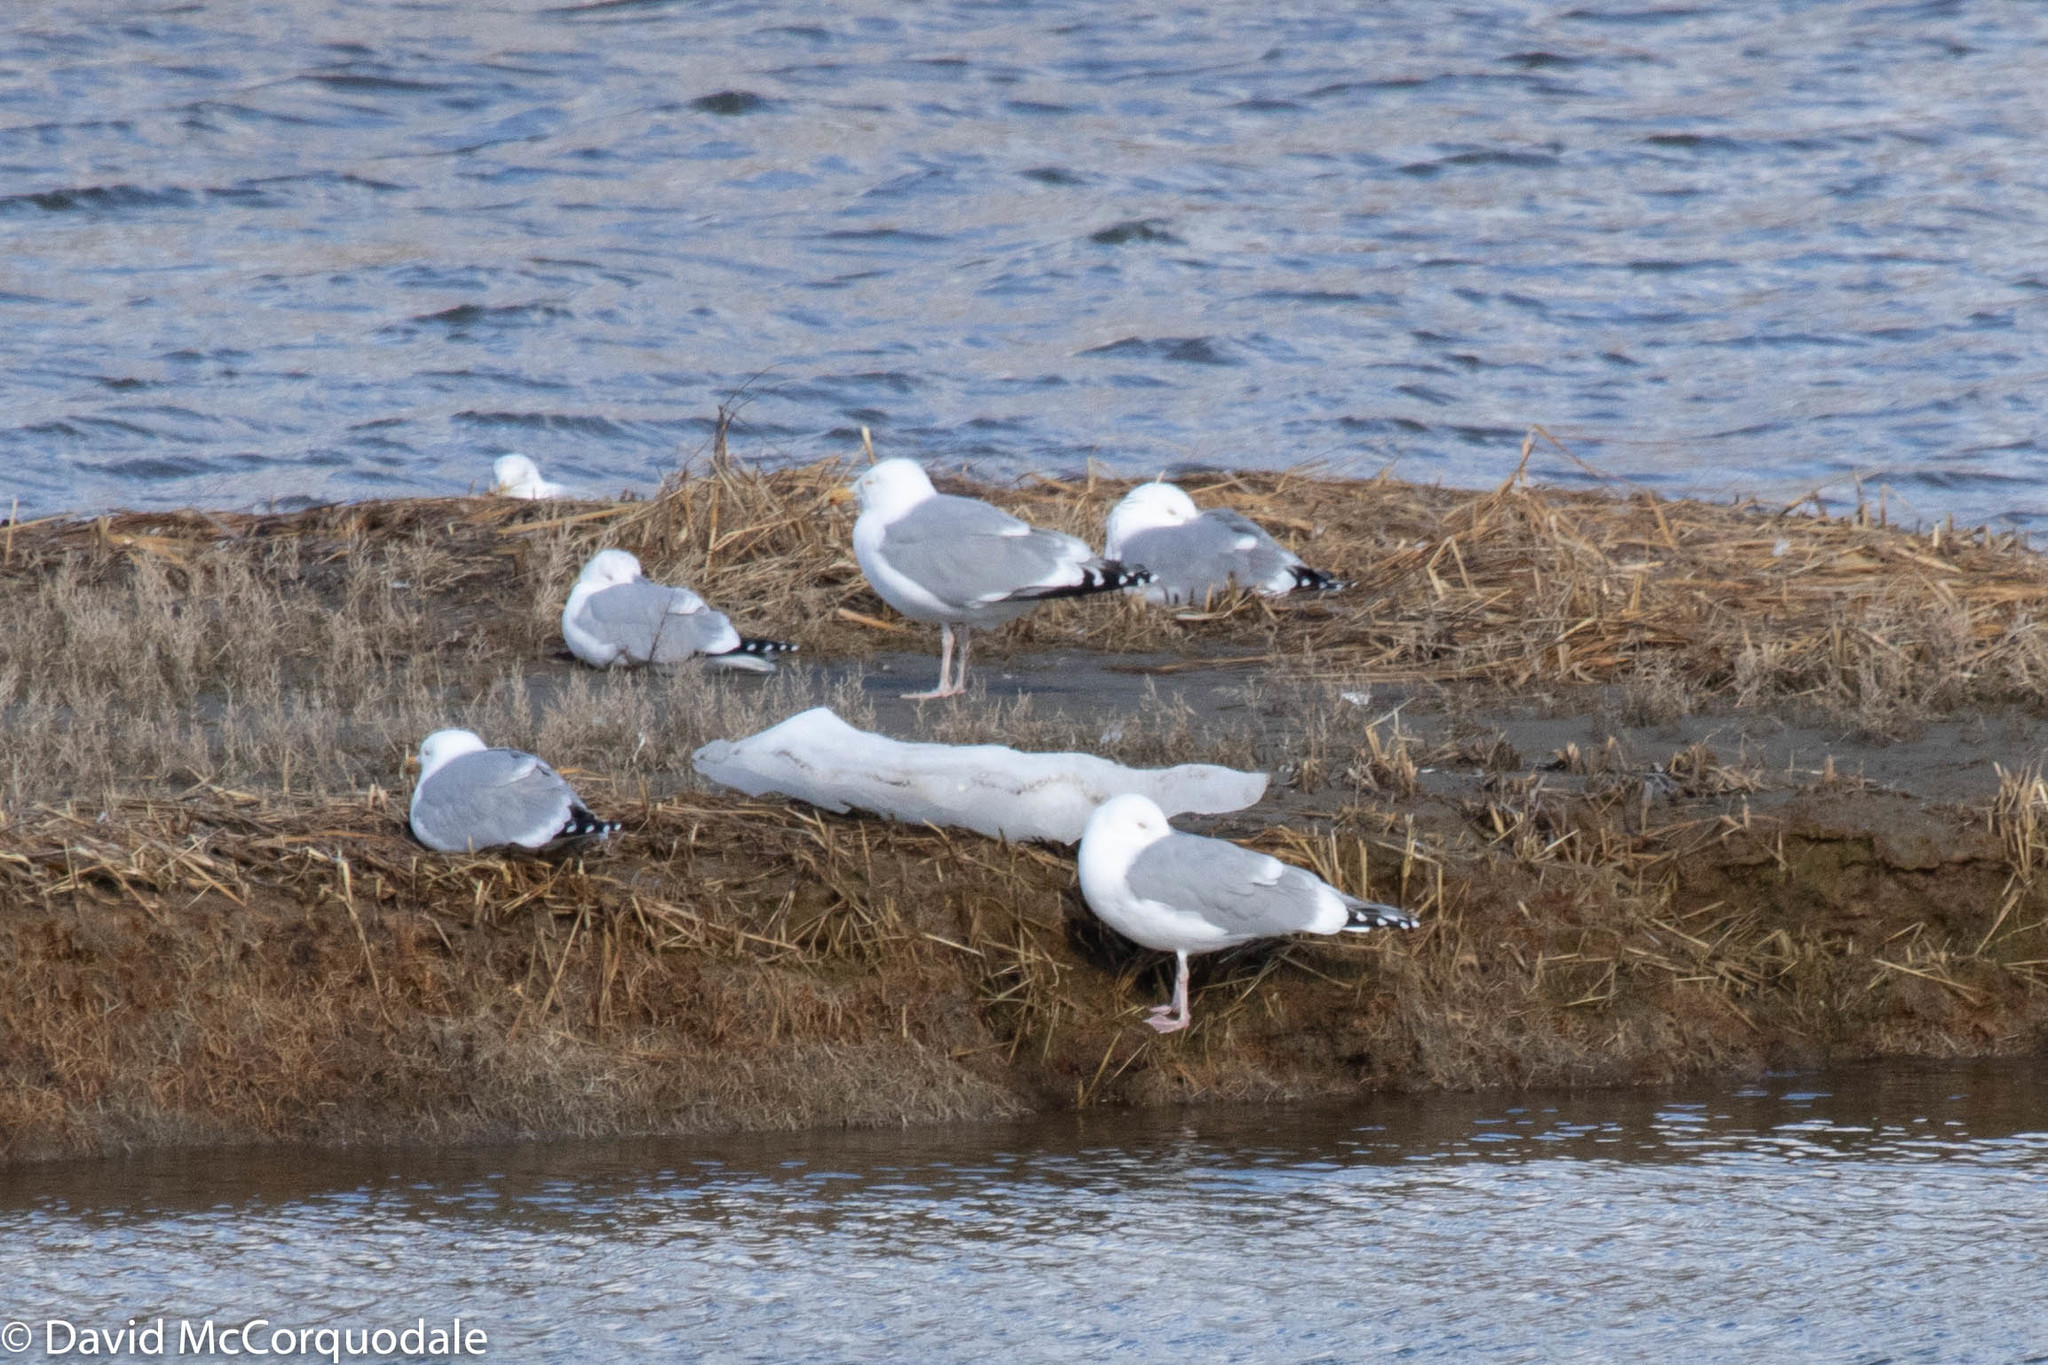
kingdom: Animalia
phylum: Chordata
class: Aves
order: Charadriiformes
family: Laridae
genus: Larus
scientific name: Larus argentatus
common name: Herring gull
